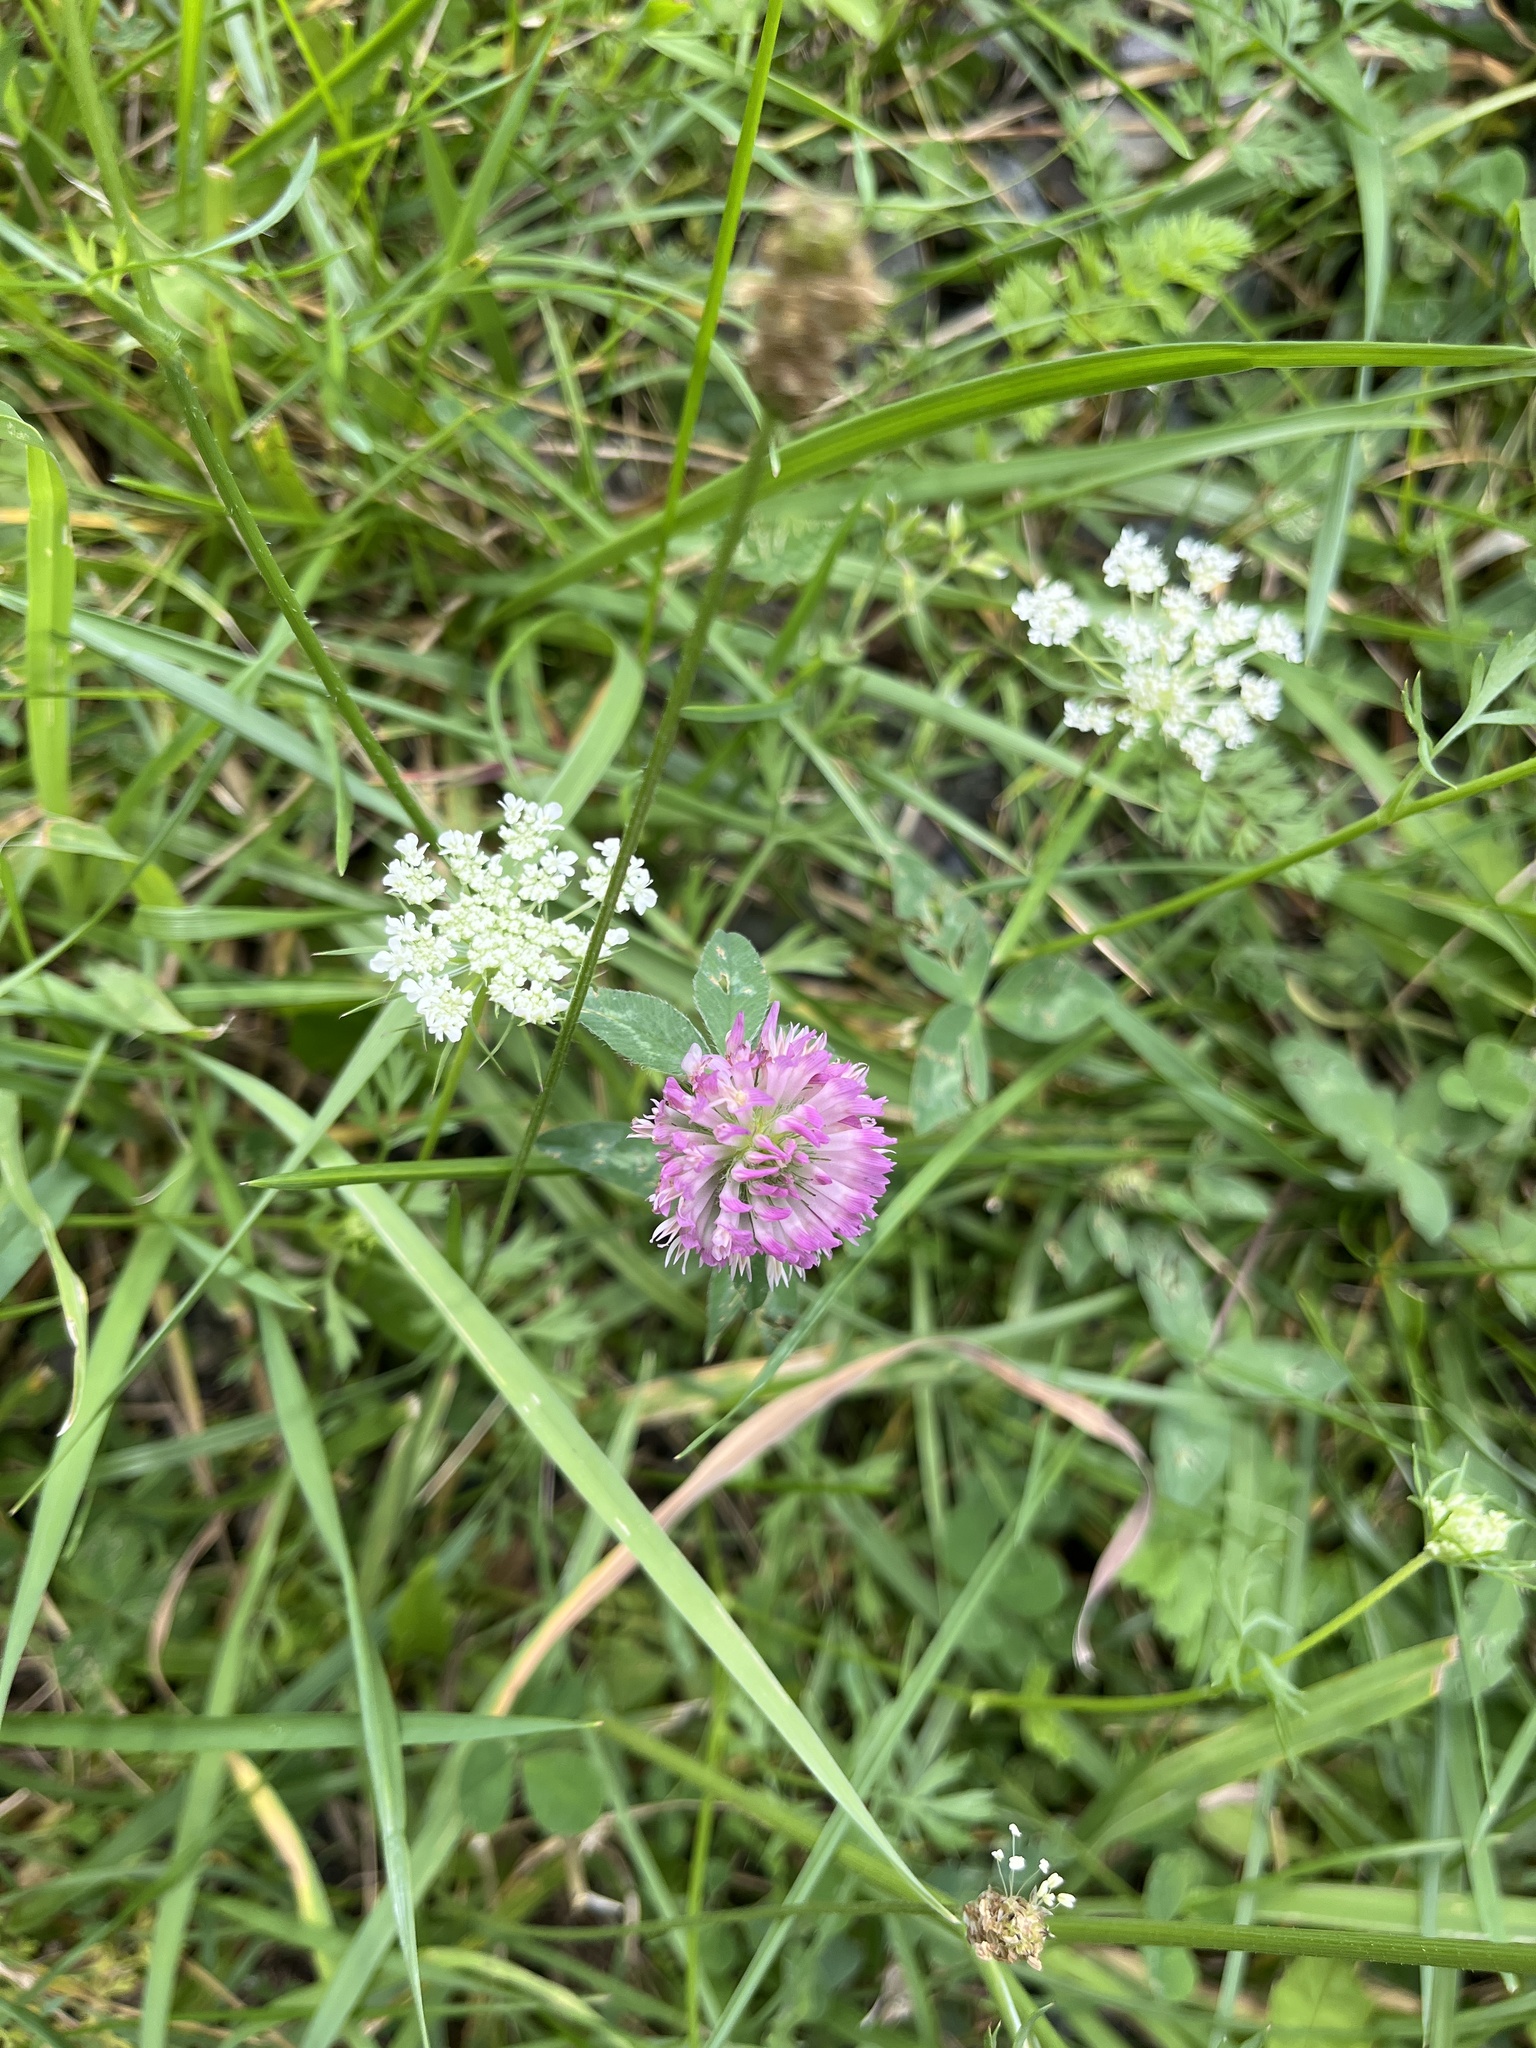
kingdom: Plantae
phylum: Tracheophyta
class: Magnoliopsida
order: Fabales
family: Fabaceae
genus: Trifolium
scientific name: Trifolium pratense
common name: Red clover
